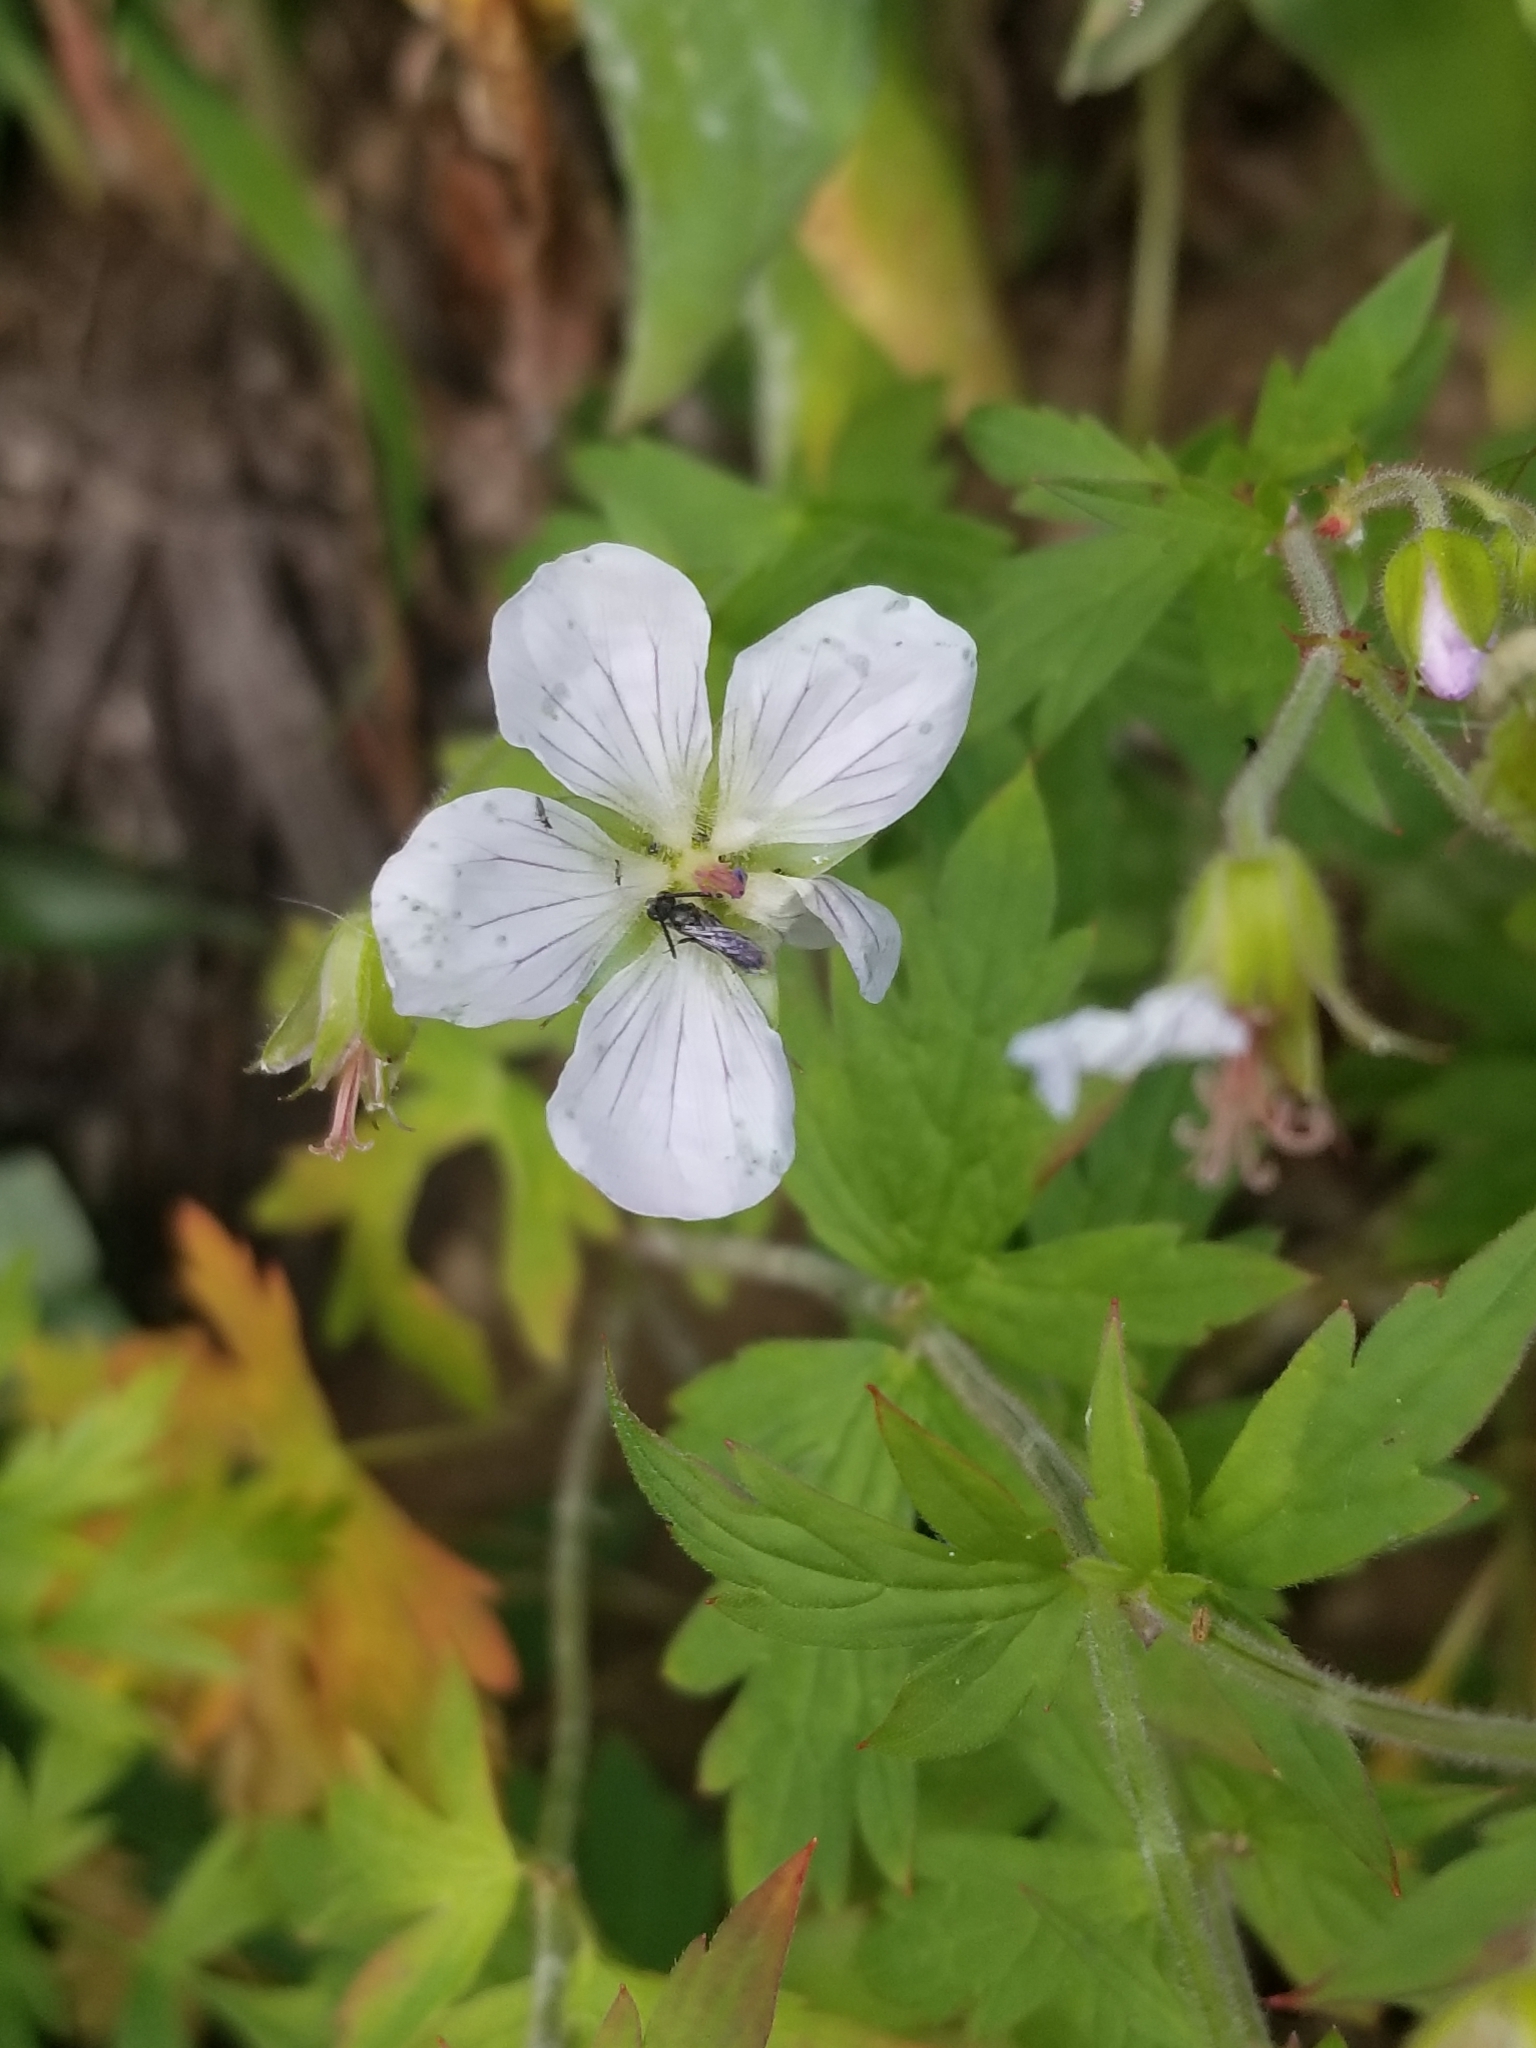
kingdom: Plantae
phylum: Tracheophyta
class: Magnoliopsida
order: Geraniales
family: Geraniaceae
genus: Geranium
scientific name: Geranium richardsonii
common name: Richardson's crane's-bill
